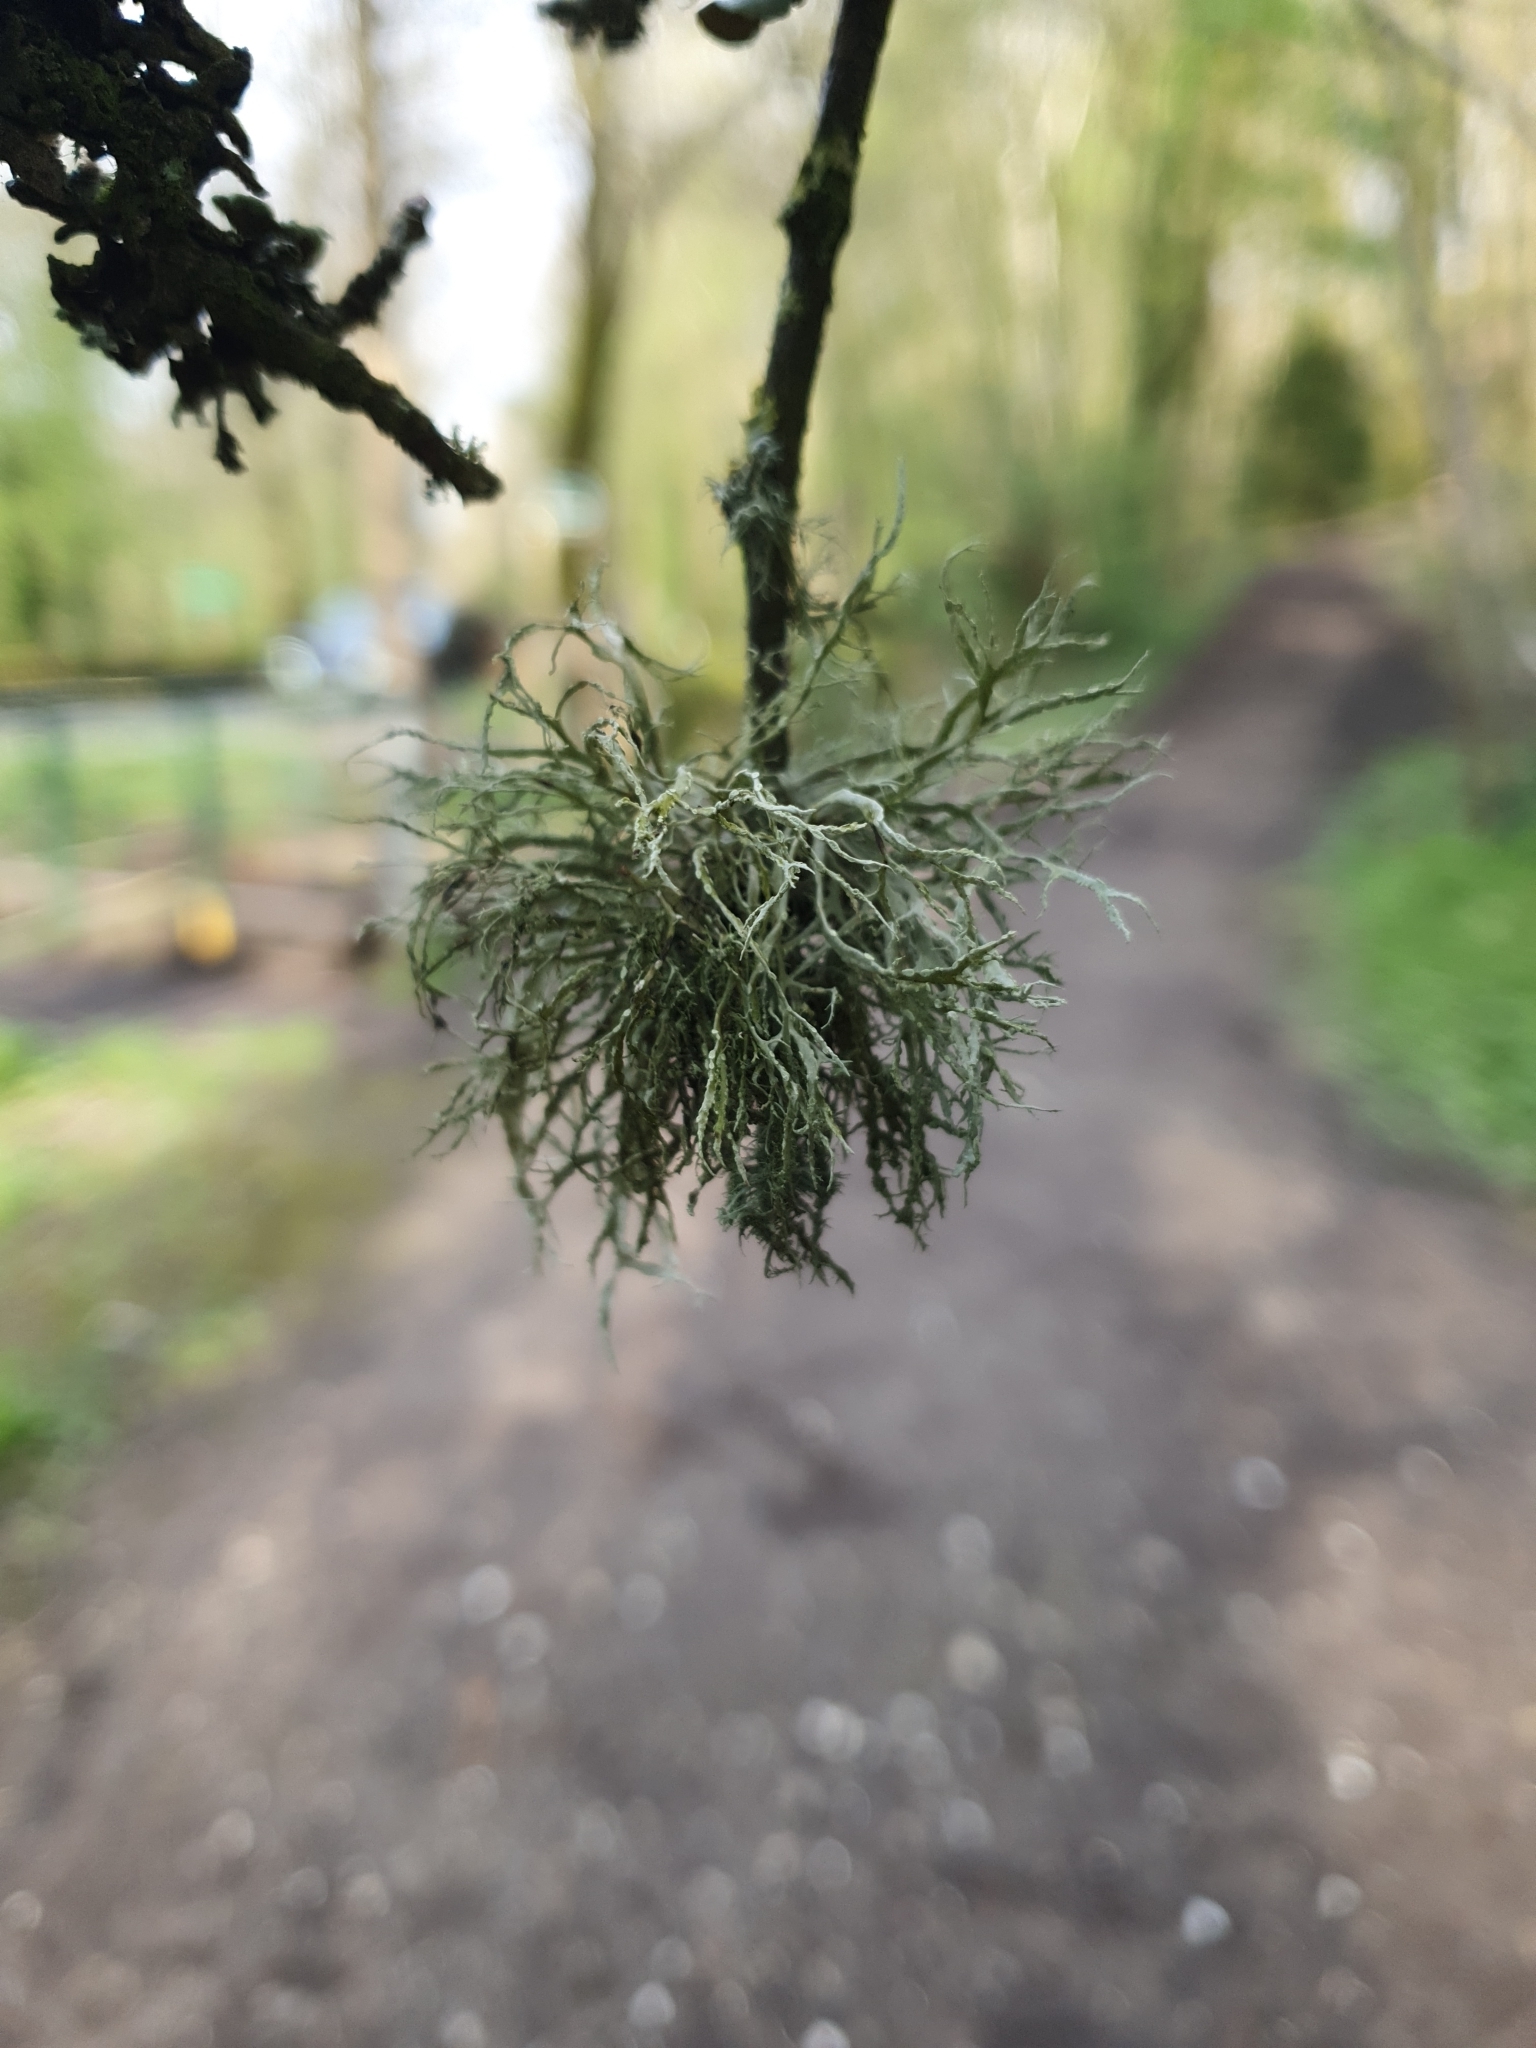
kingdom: Fungi
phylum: Ascomycota
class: Lecanoromycetes
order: Lecanorales
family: Ramalinaceae
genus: Ramalina
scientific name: Ramalina farinacea
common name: Farinose cartilage lichen
